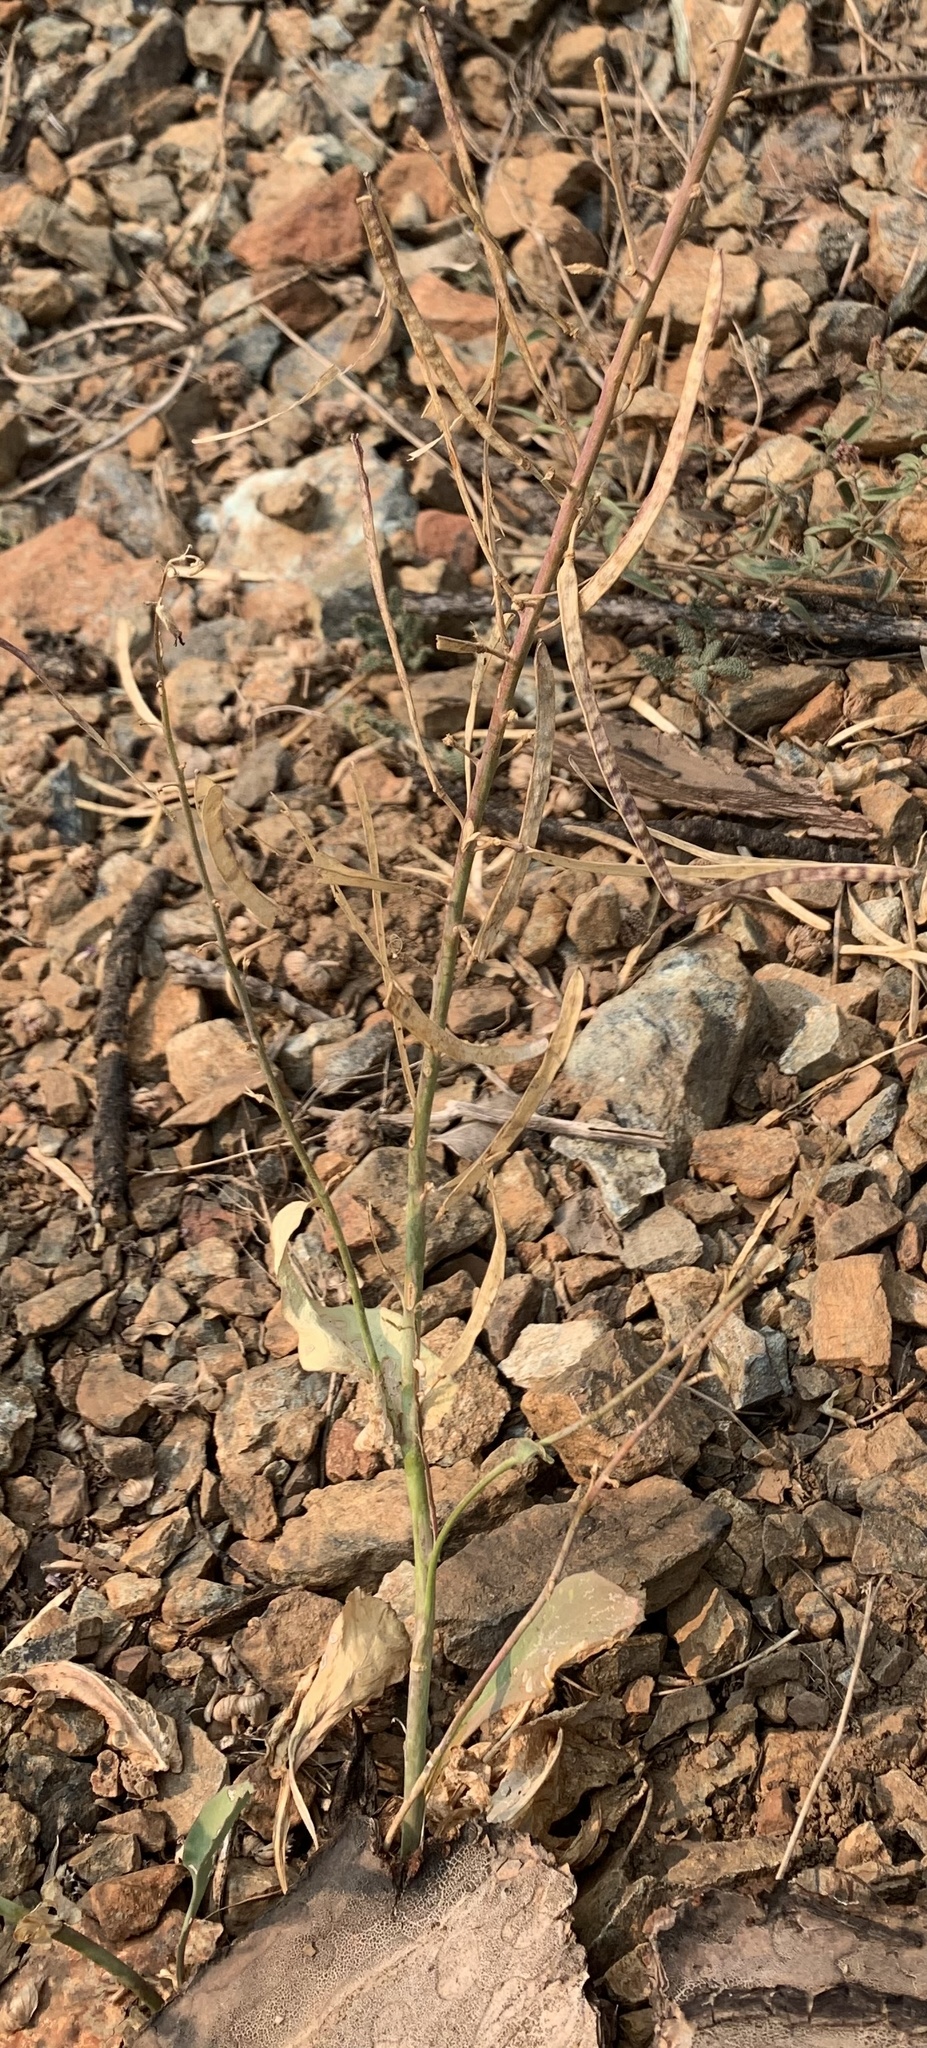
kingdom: Plantae
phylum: Tracheophyta
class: Magnoliopsida
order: Brassicales
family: Brassicaceae
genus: Streptanthus
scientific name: Streptanthus cordatus
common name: Heart-leaf jewel-flower
